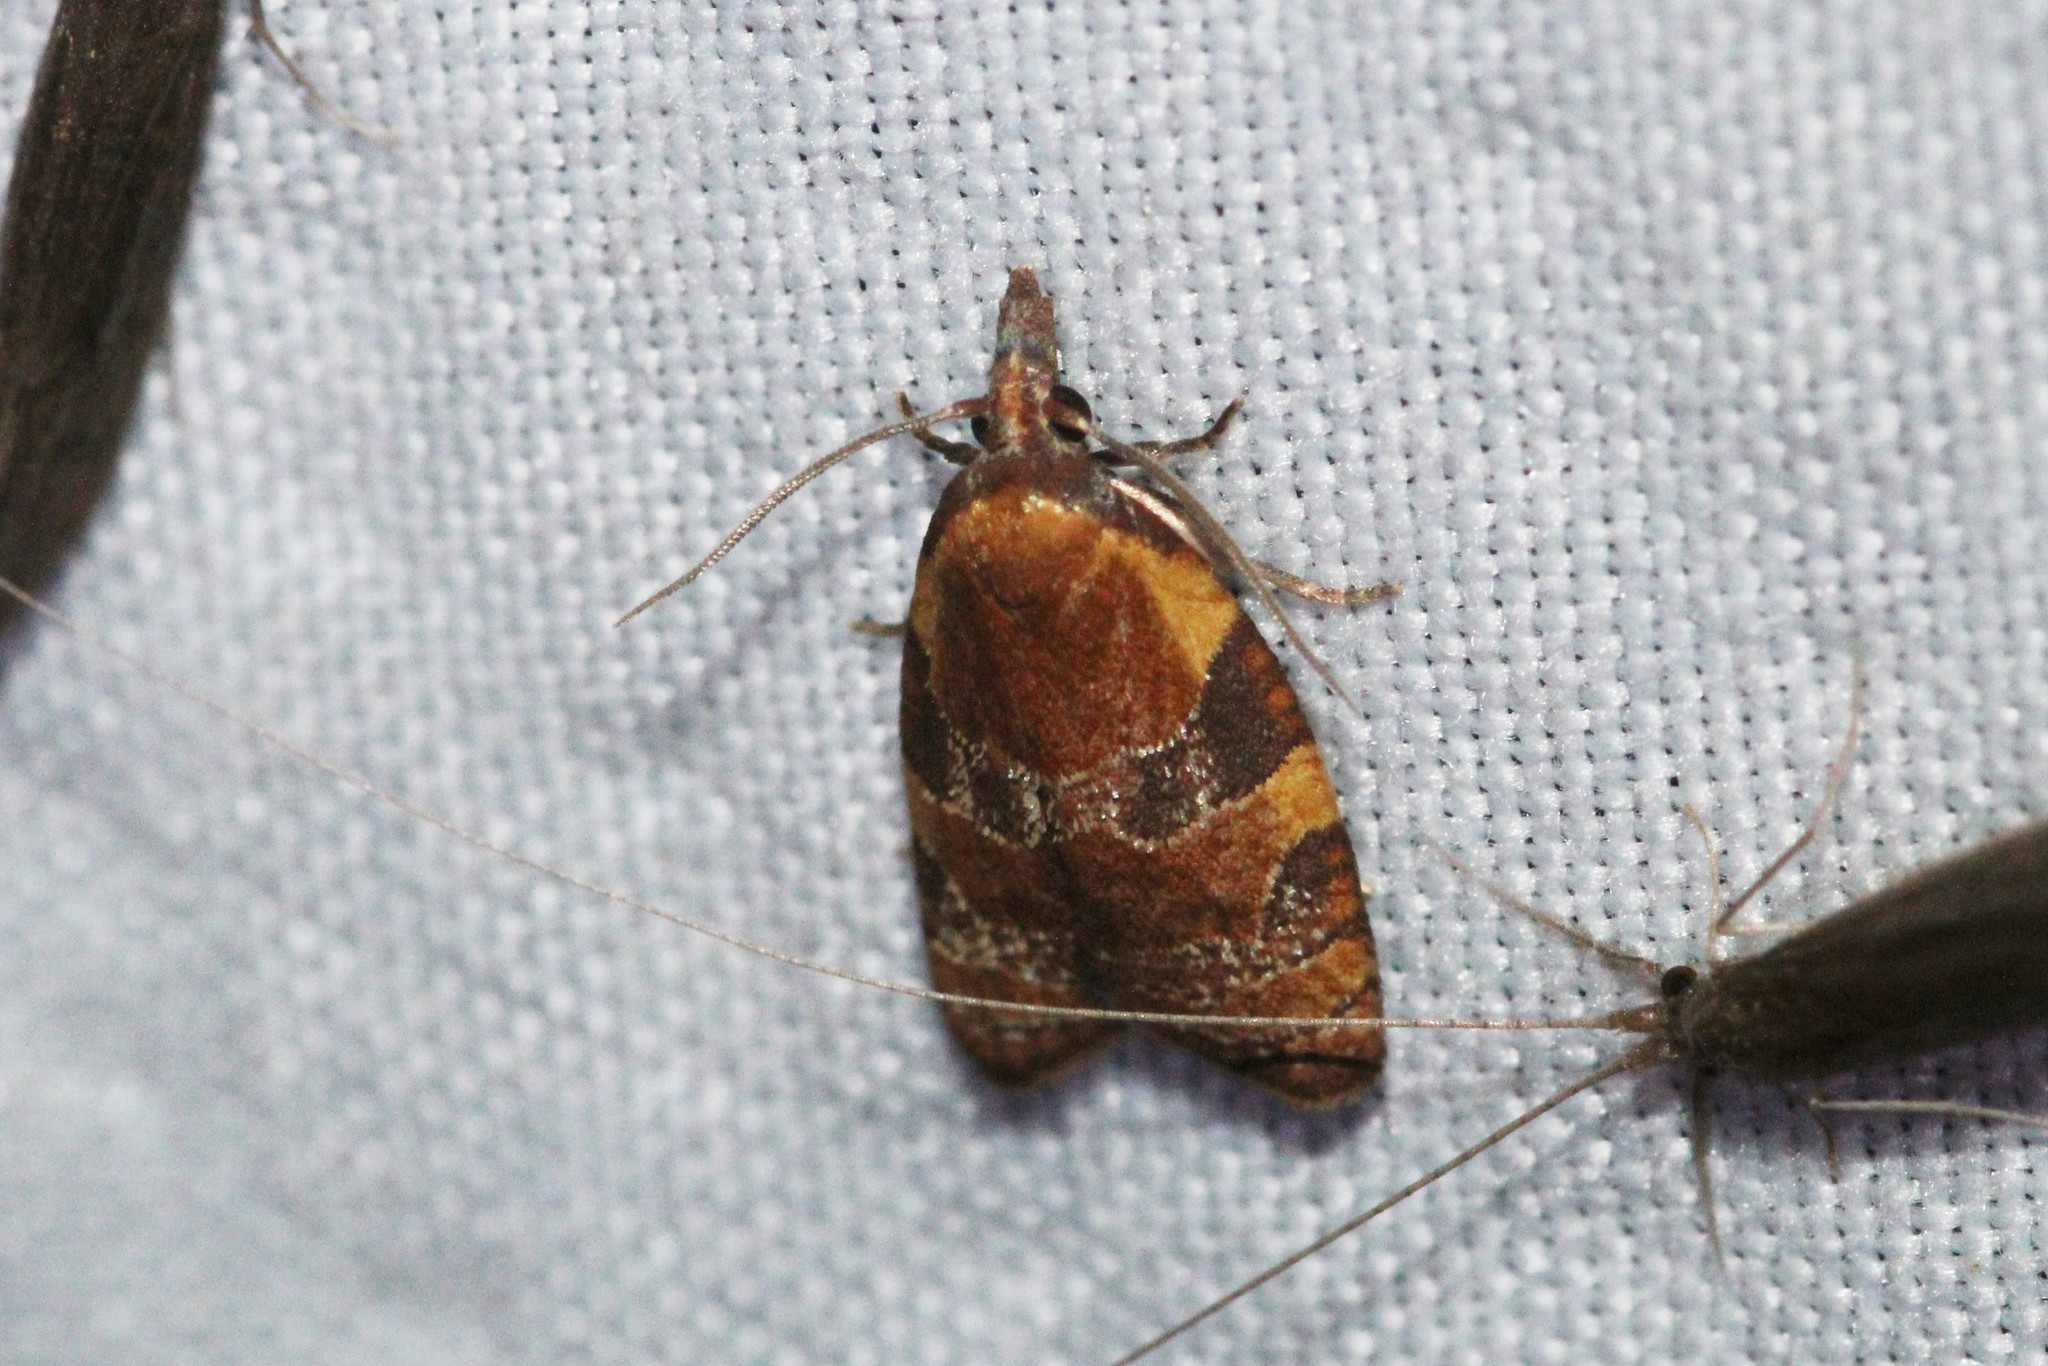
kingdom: Animalia
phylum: Arthropoda
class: Insecta
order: Lepidoptera
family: Tortricidae
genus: Cenopis
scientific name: Cenopis diluticostana
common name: Spring dead-leaf roller moth
